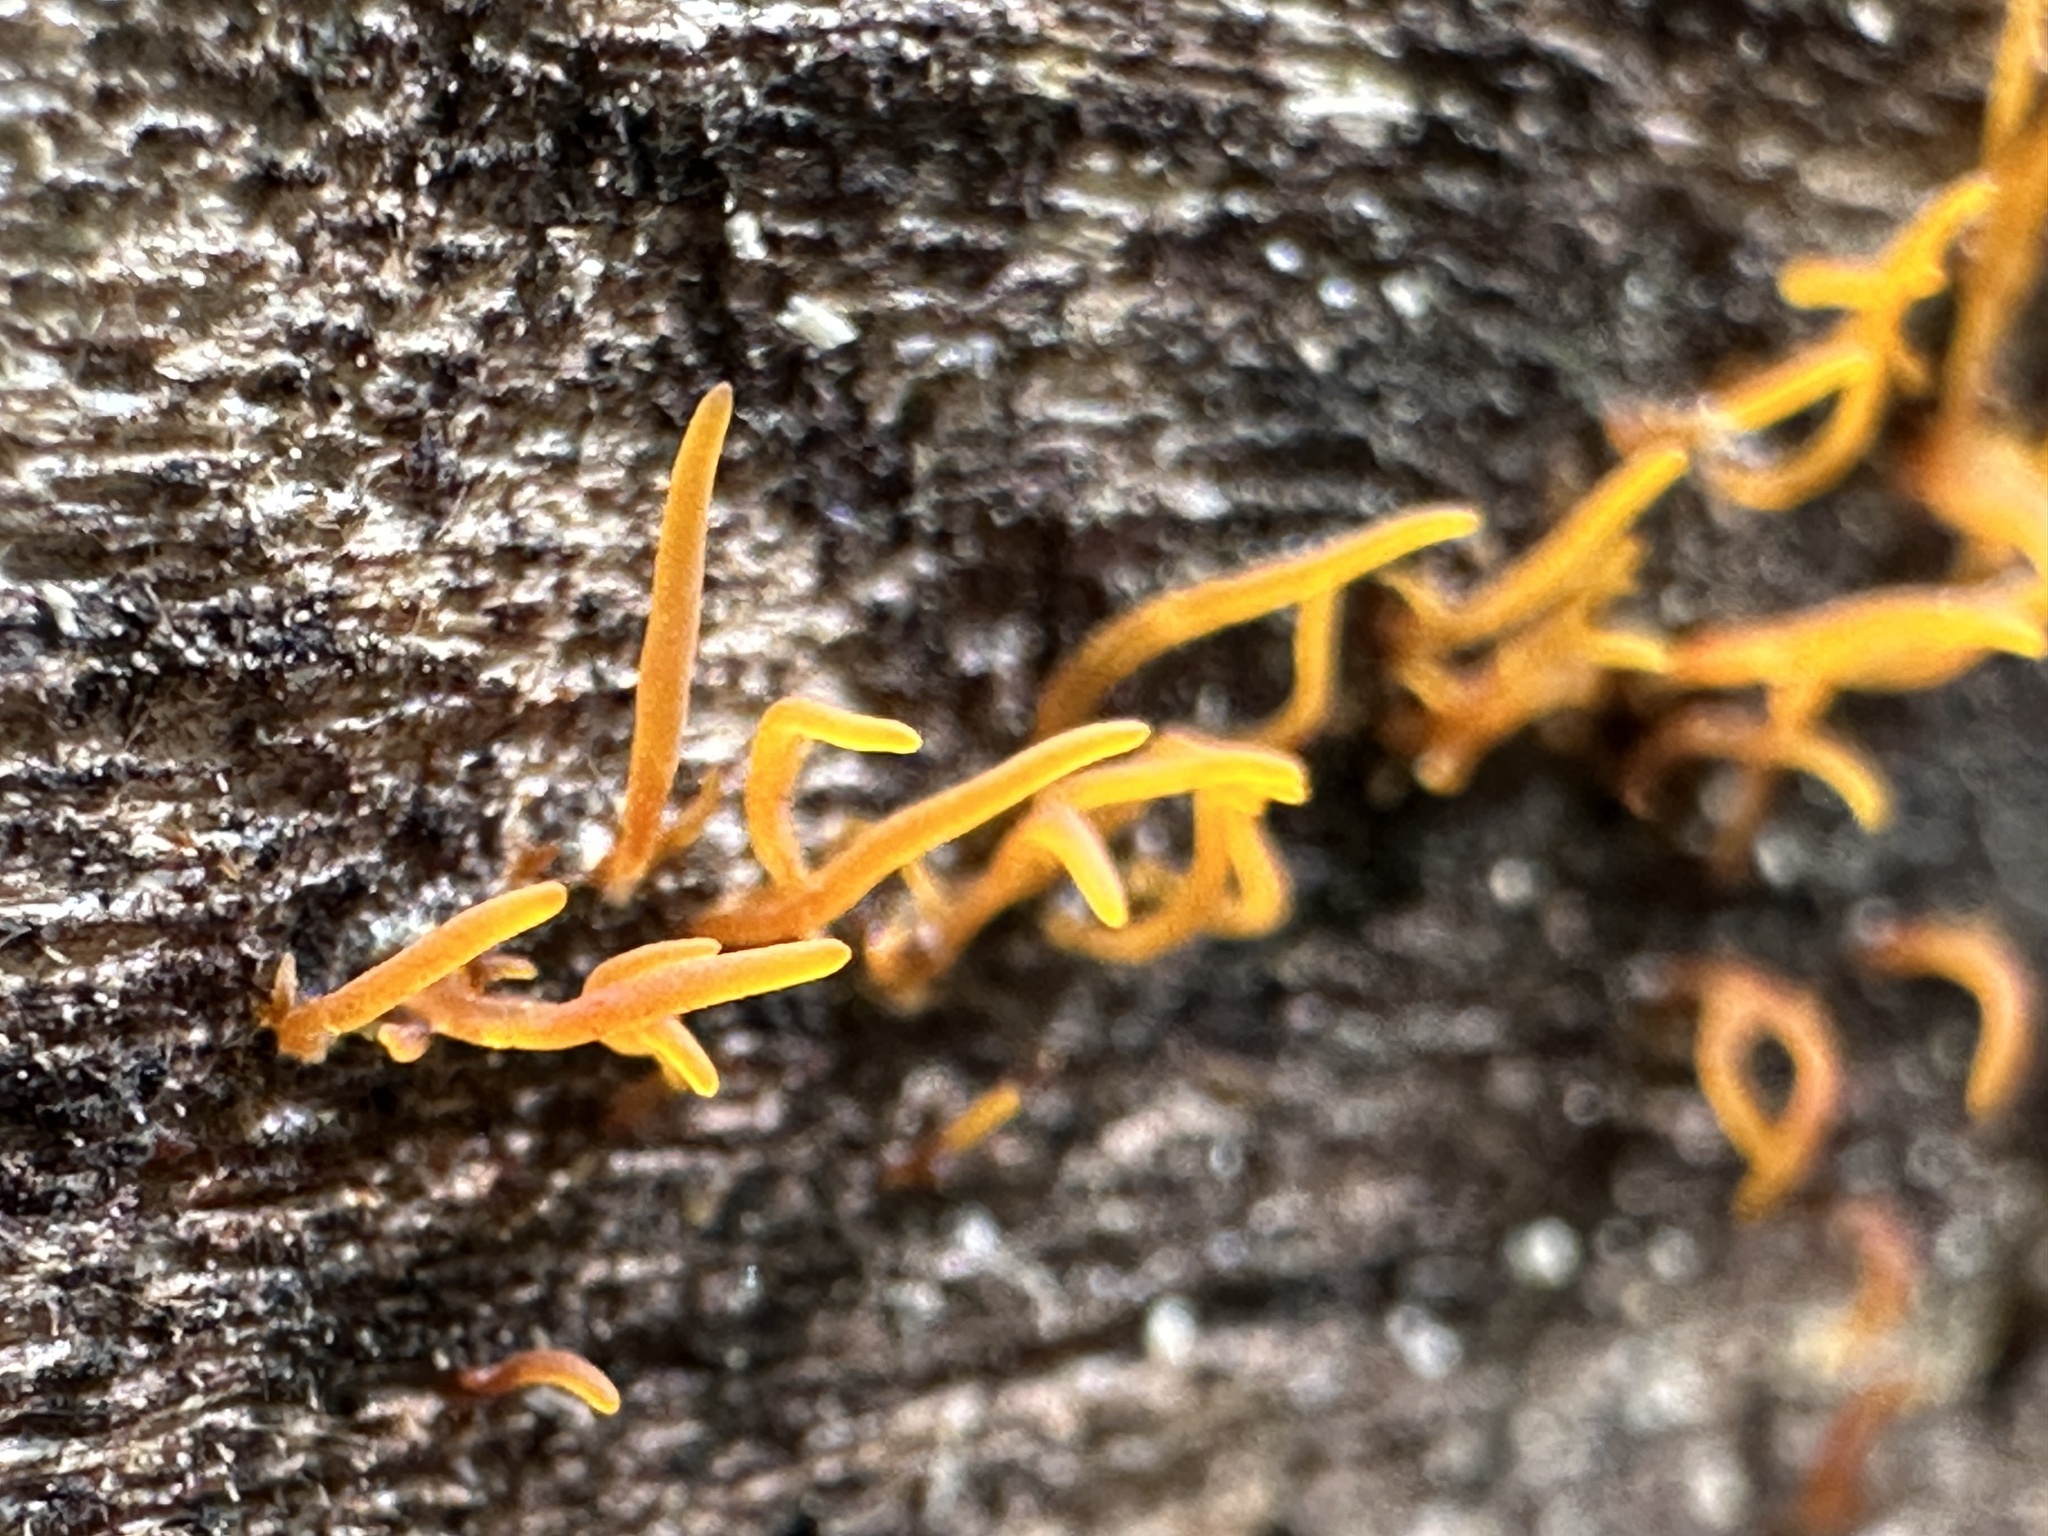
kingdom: Fungi
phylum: Basidiomycota
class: Dacrymycetes
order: Dacrymycetales
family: Dacrymycetaceae
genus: Calocera
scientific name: Calocera cornea
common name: Small stagshorn
